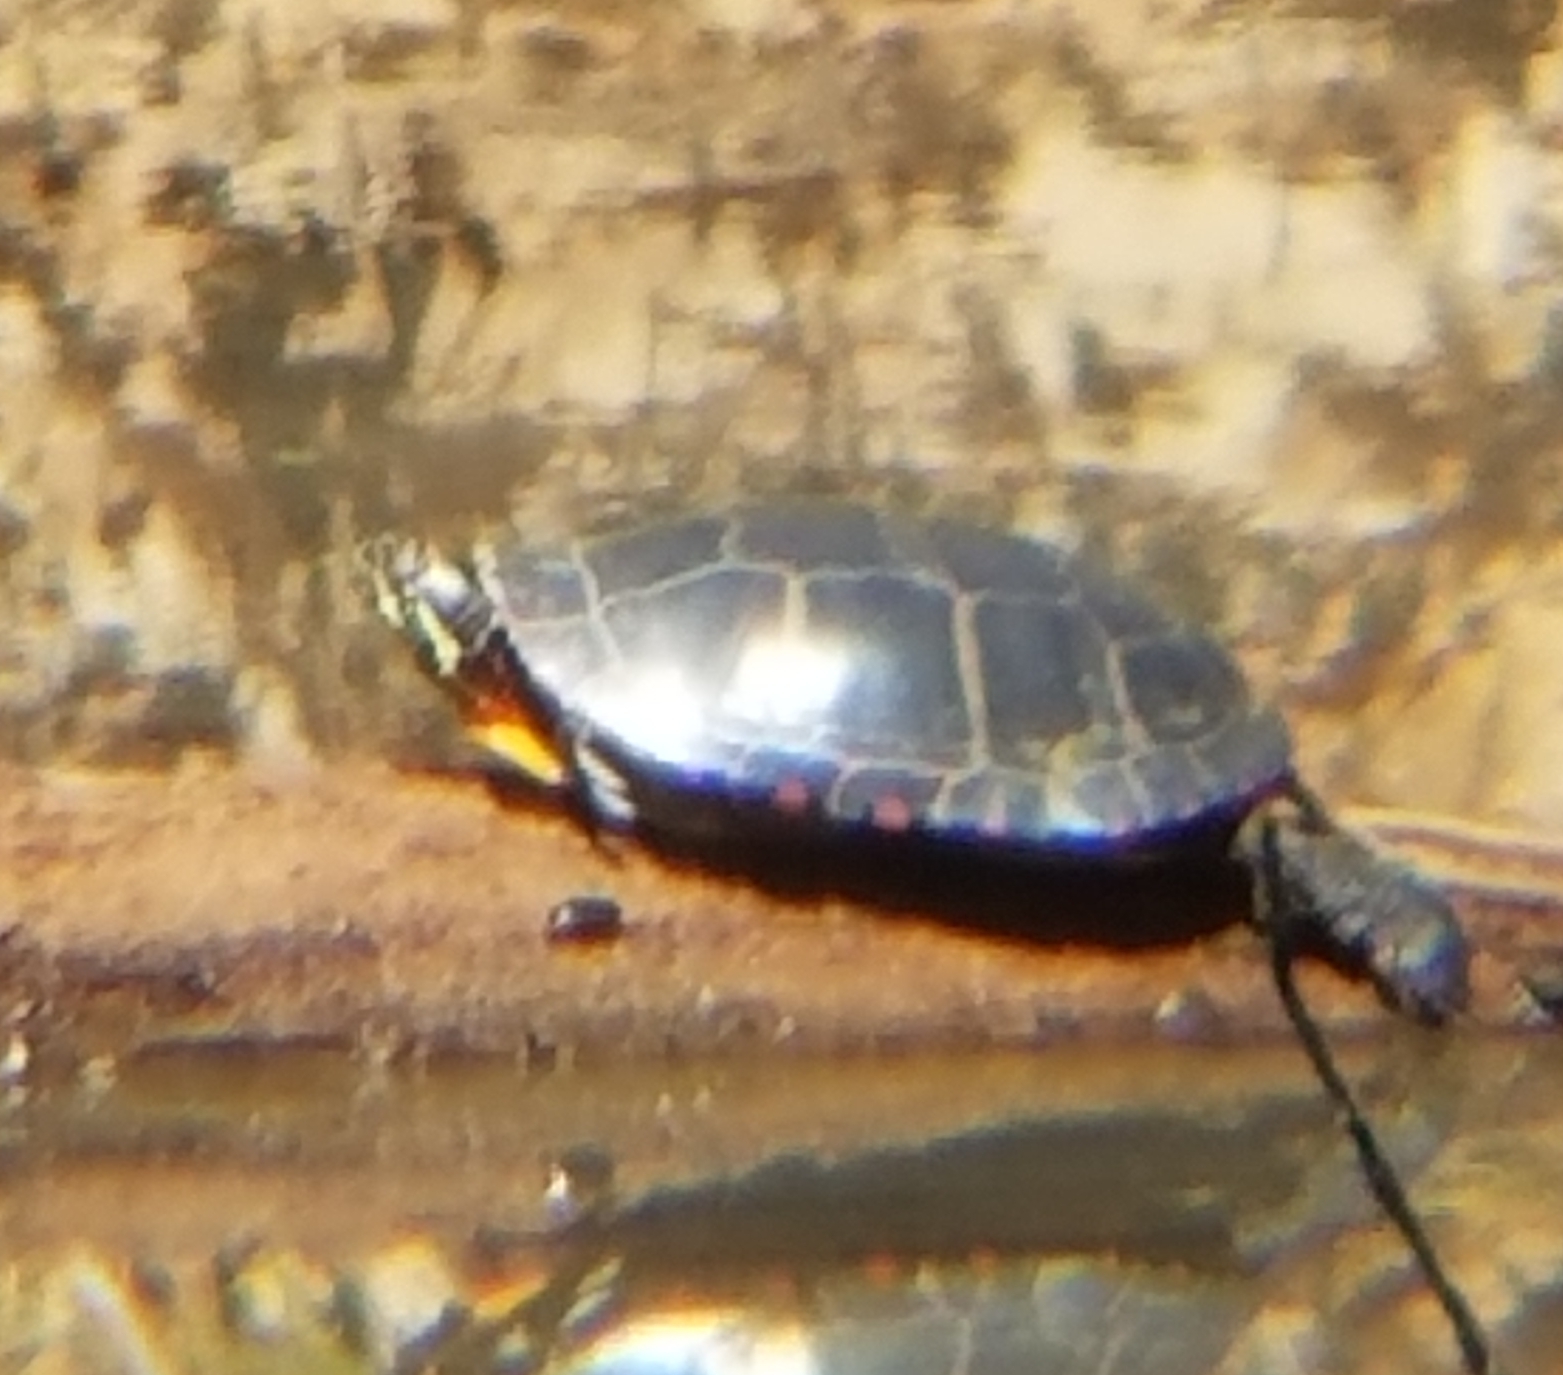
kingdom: Animalia
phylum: Chordata
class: Testudines
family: Emydidae
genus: Chrysemys
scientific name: Chrysemys picta
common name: Painted turtle
